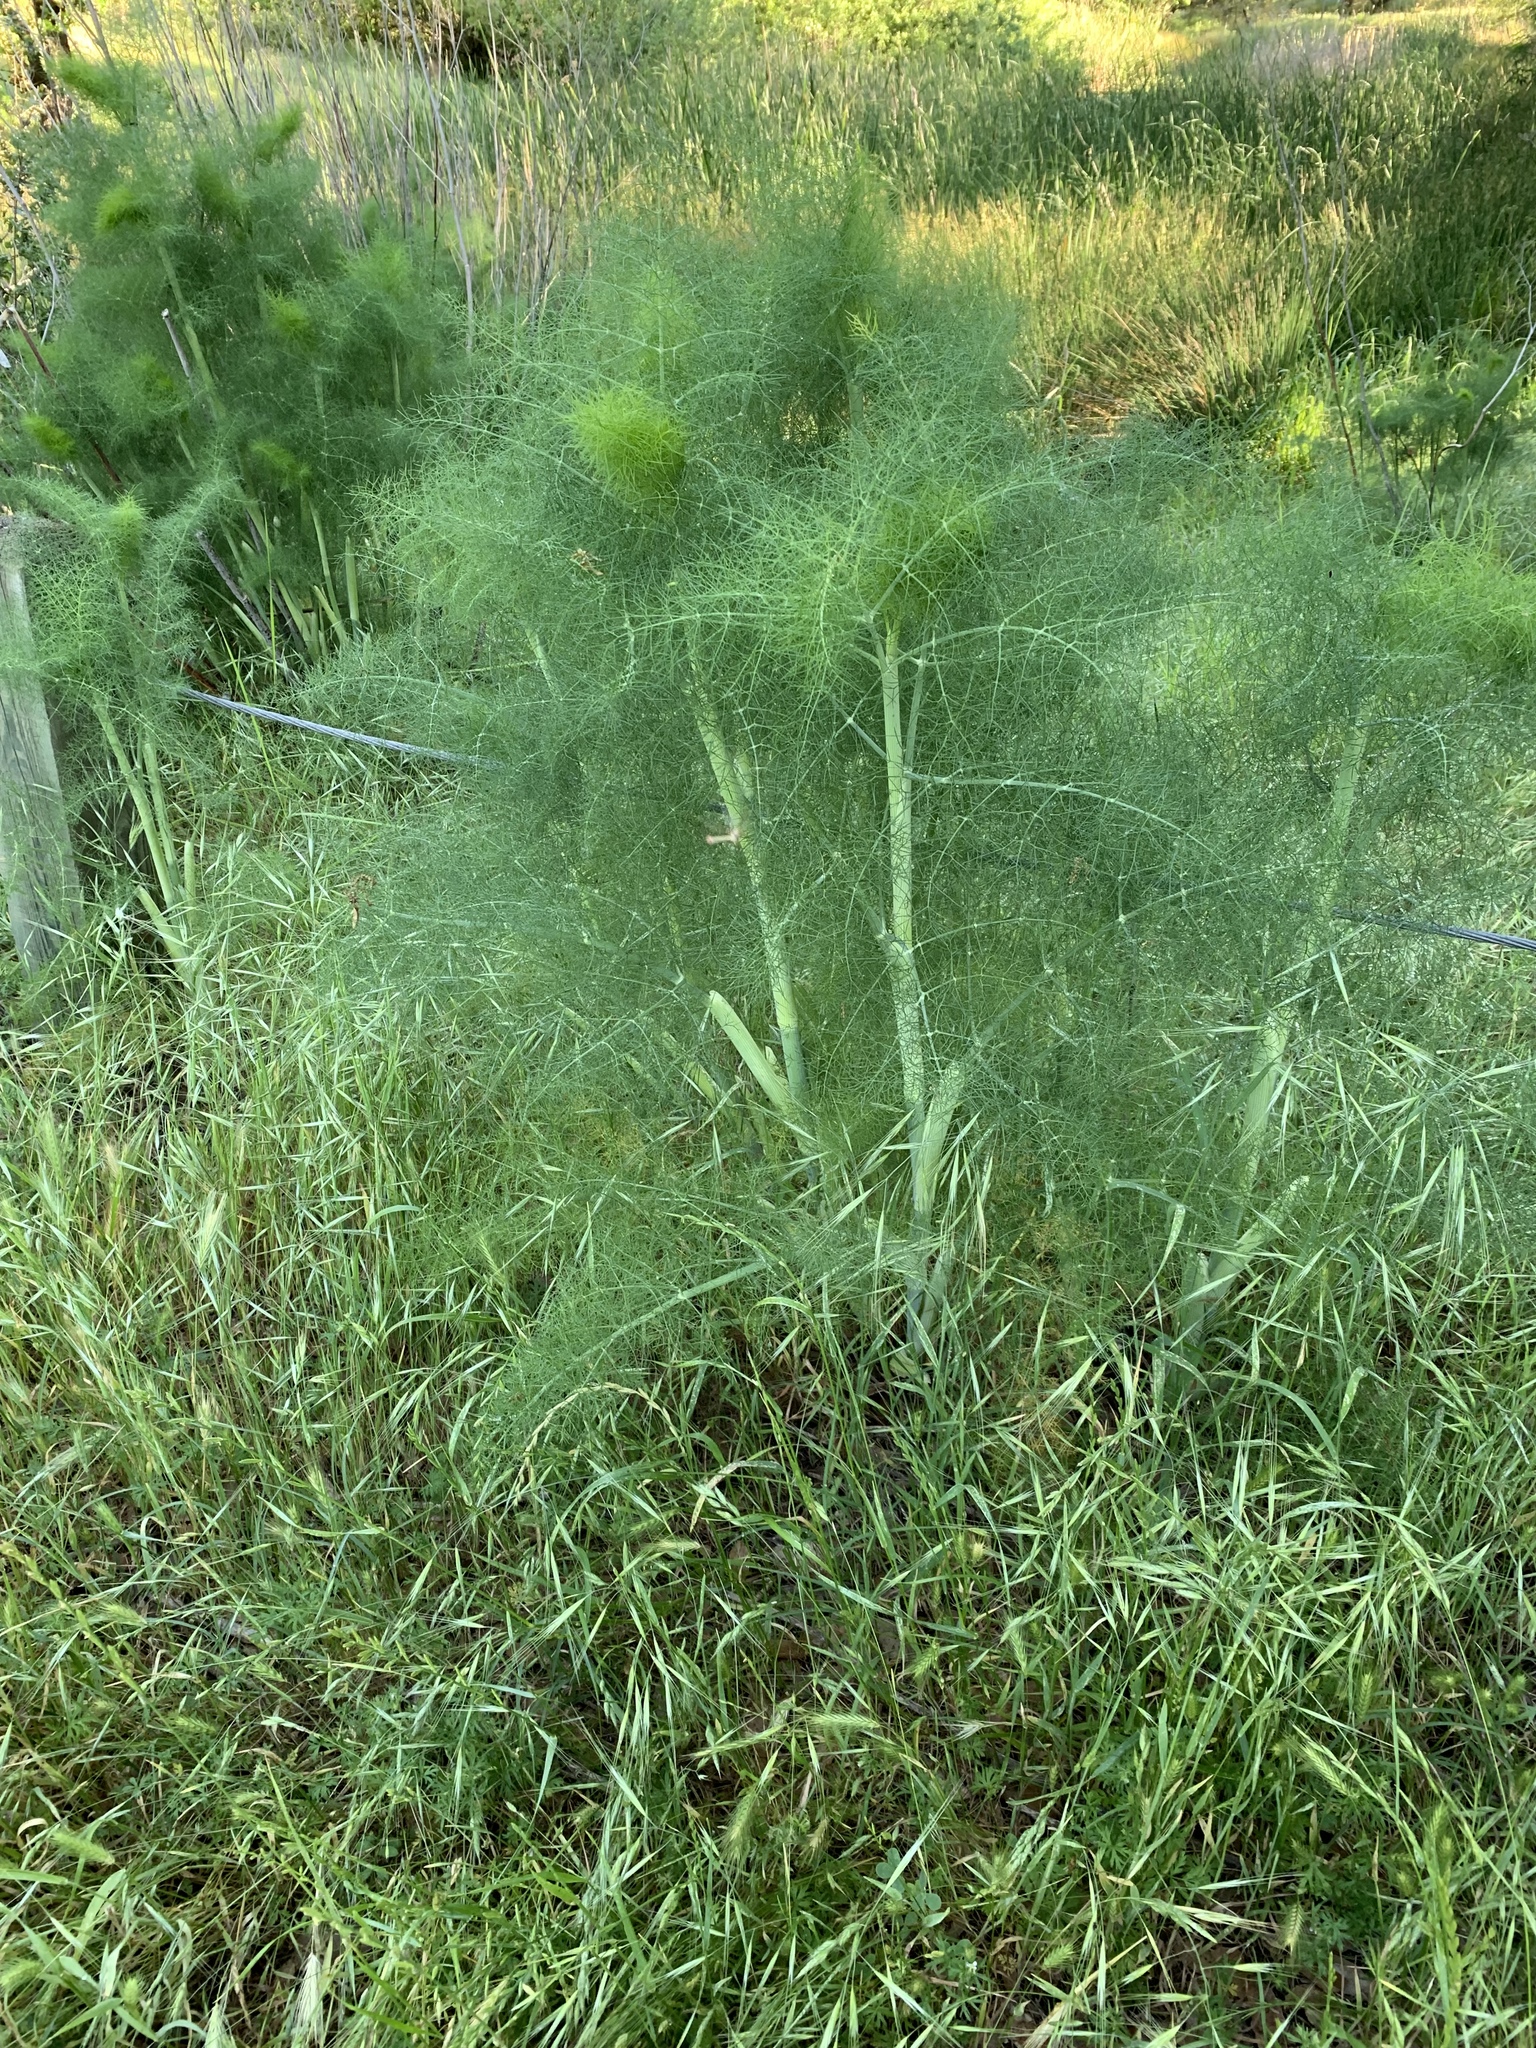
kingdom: Plantae
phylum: Tracheophyta
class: Magnoliopsida
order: Apiales
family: Apiaceae
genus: Foeniculum
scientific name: Foeniculum vulgare
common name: Fennel
